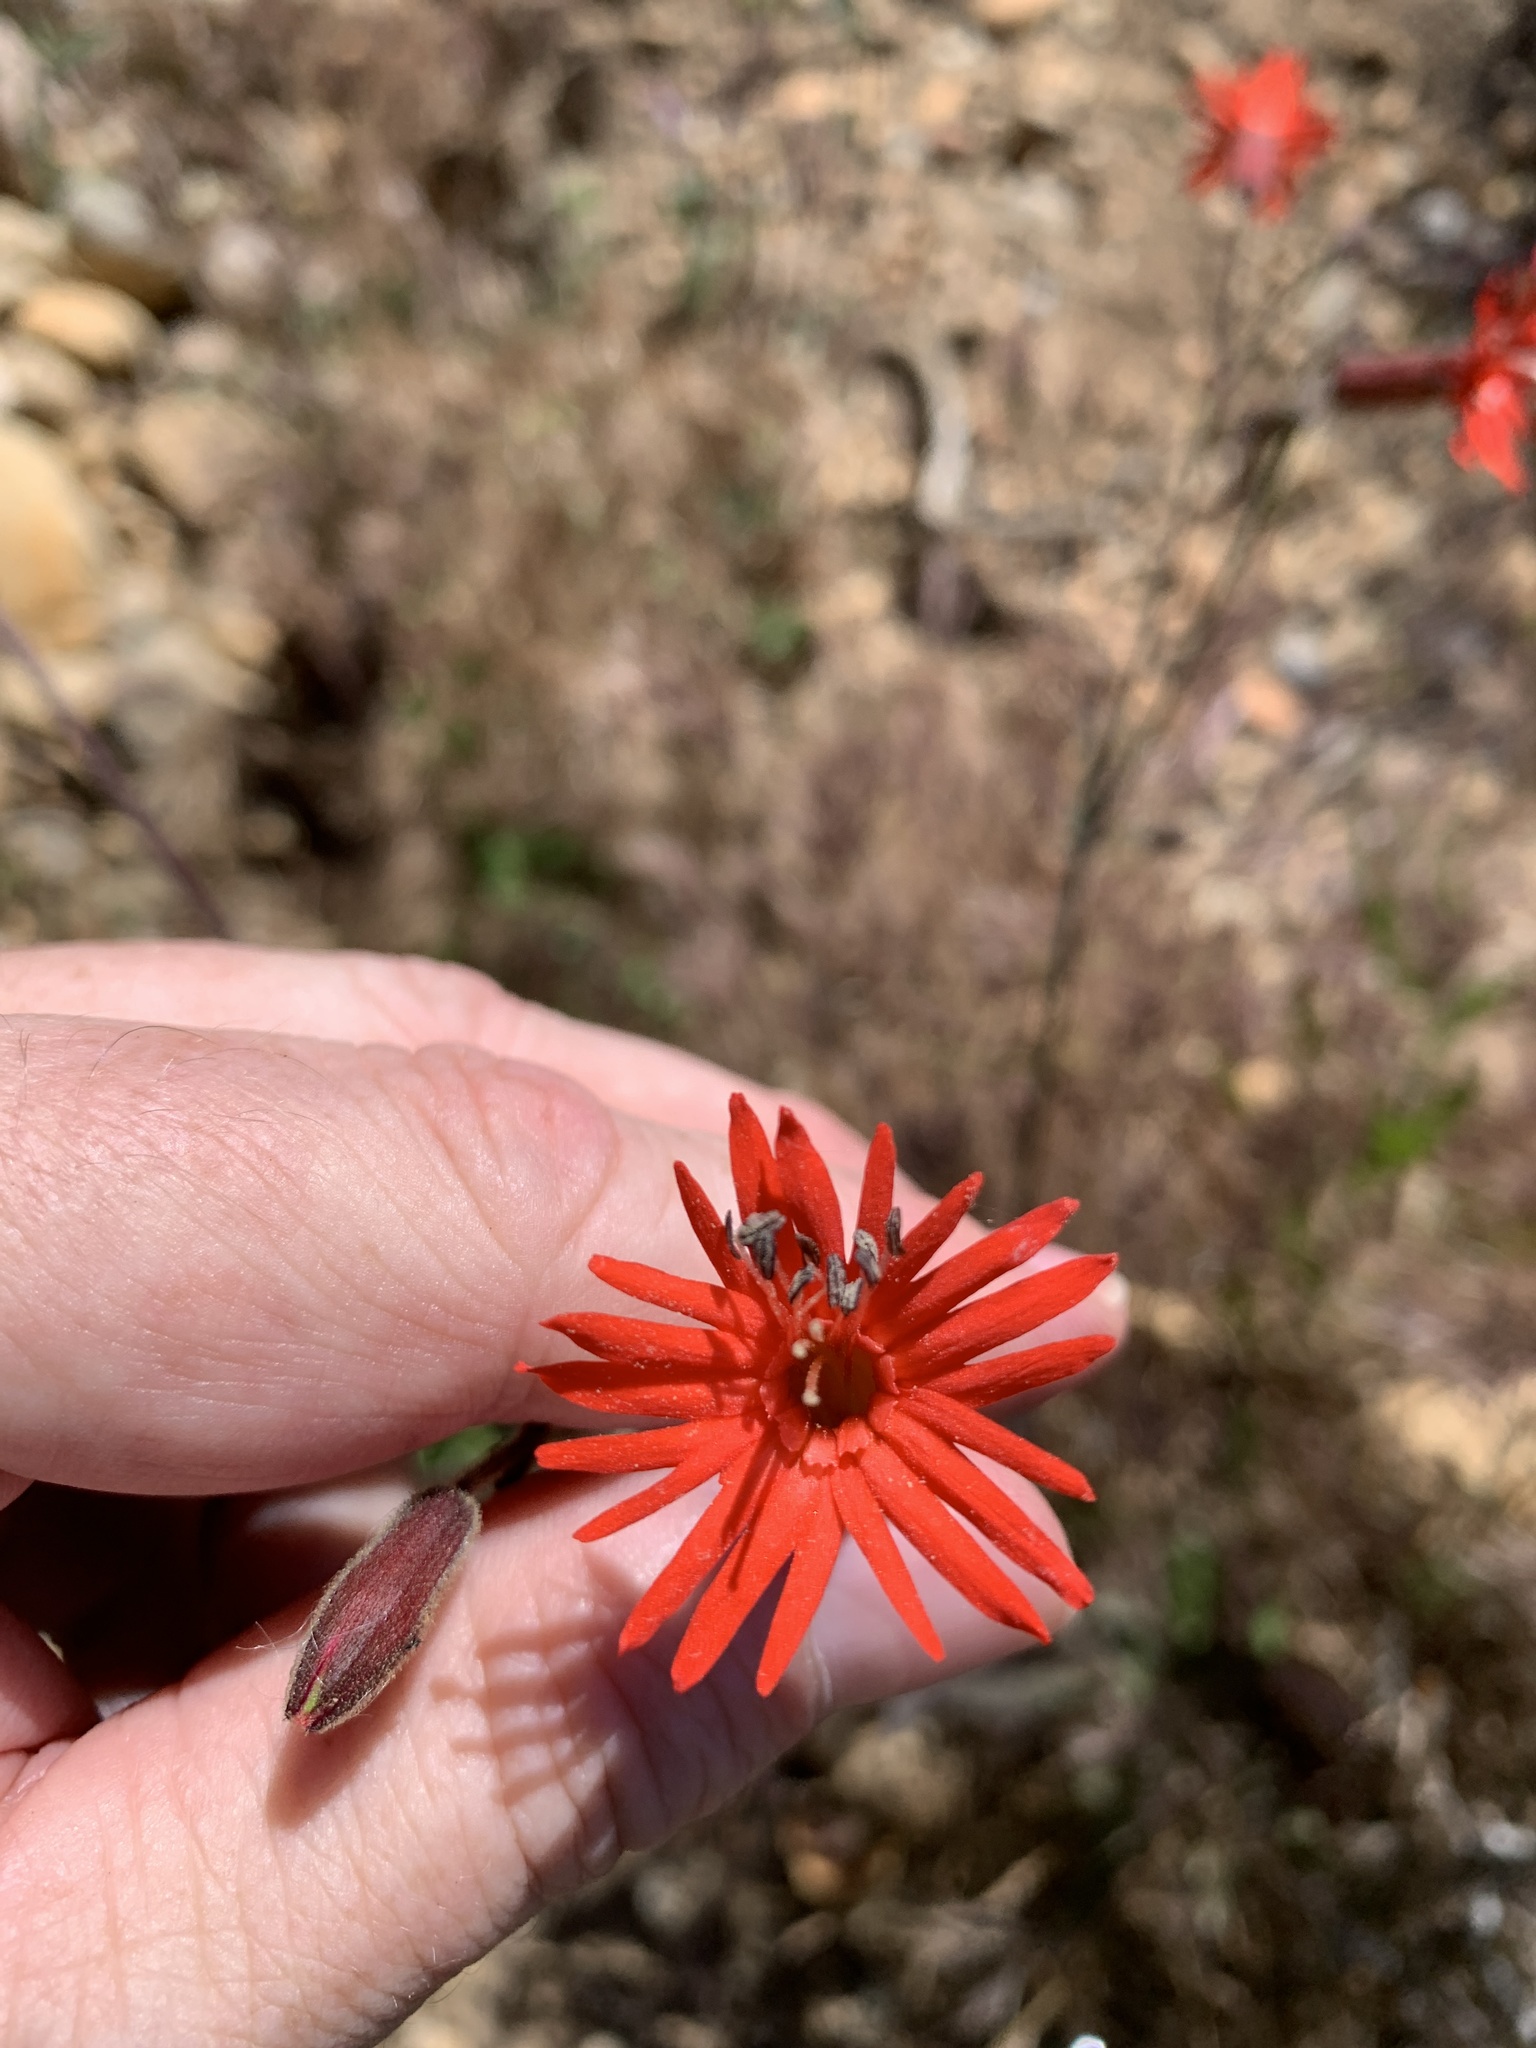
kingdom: Plantae
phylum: Tracheophyta
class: Magnoliopsida
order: Caryophyllales
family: Caryophyllaceae
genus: Silene
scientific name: Silene laciniata
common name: Indian-pink
